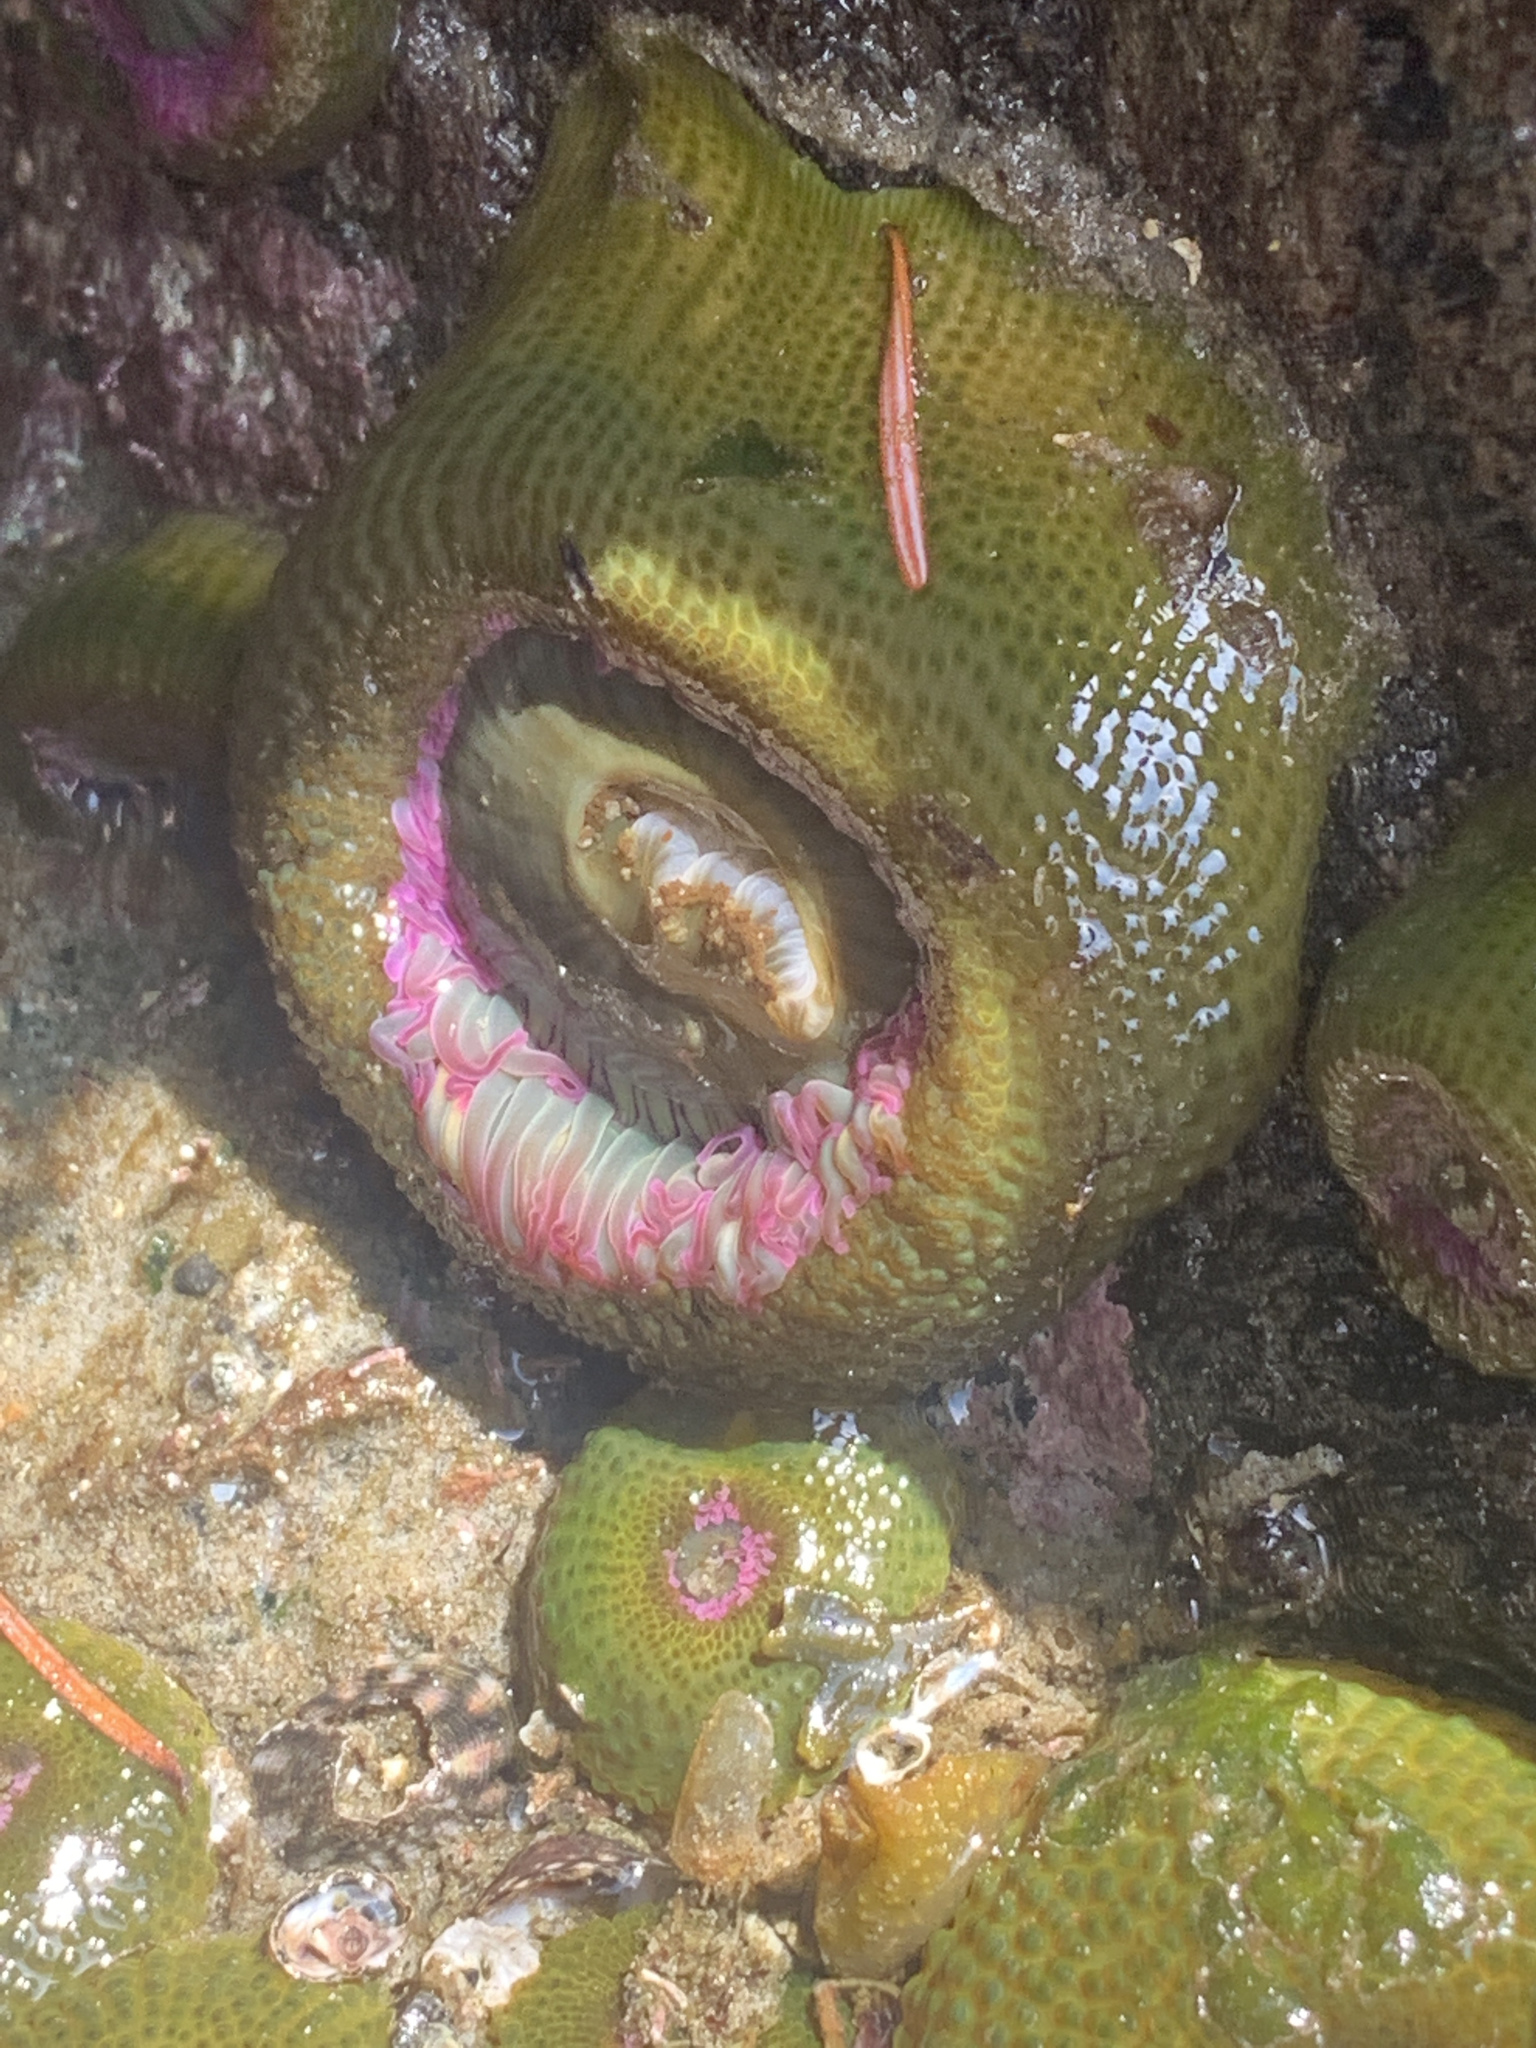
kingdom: Animalia
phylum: Cnidaria
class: Anthozoa
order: Actiniaria
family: Actiniidae
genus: Anthopleura
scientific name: Anthopleura elegantissima
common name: Clonal anemone
